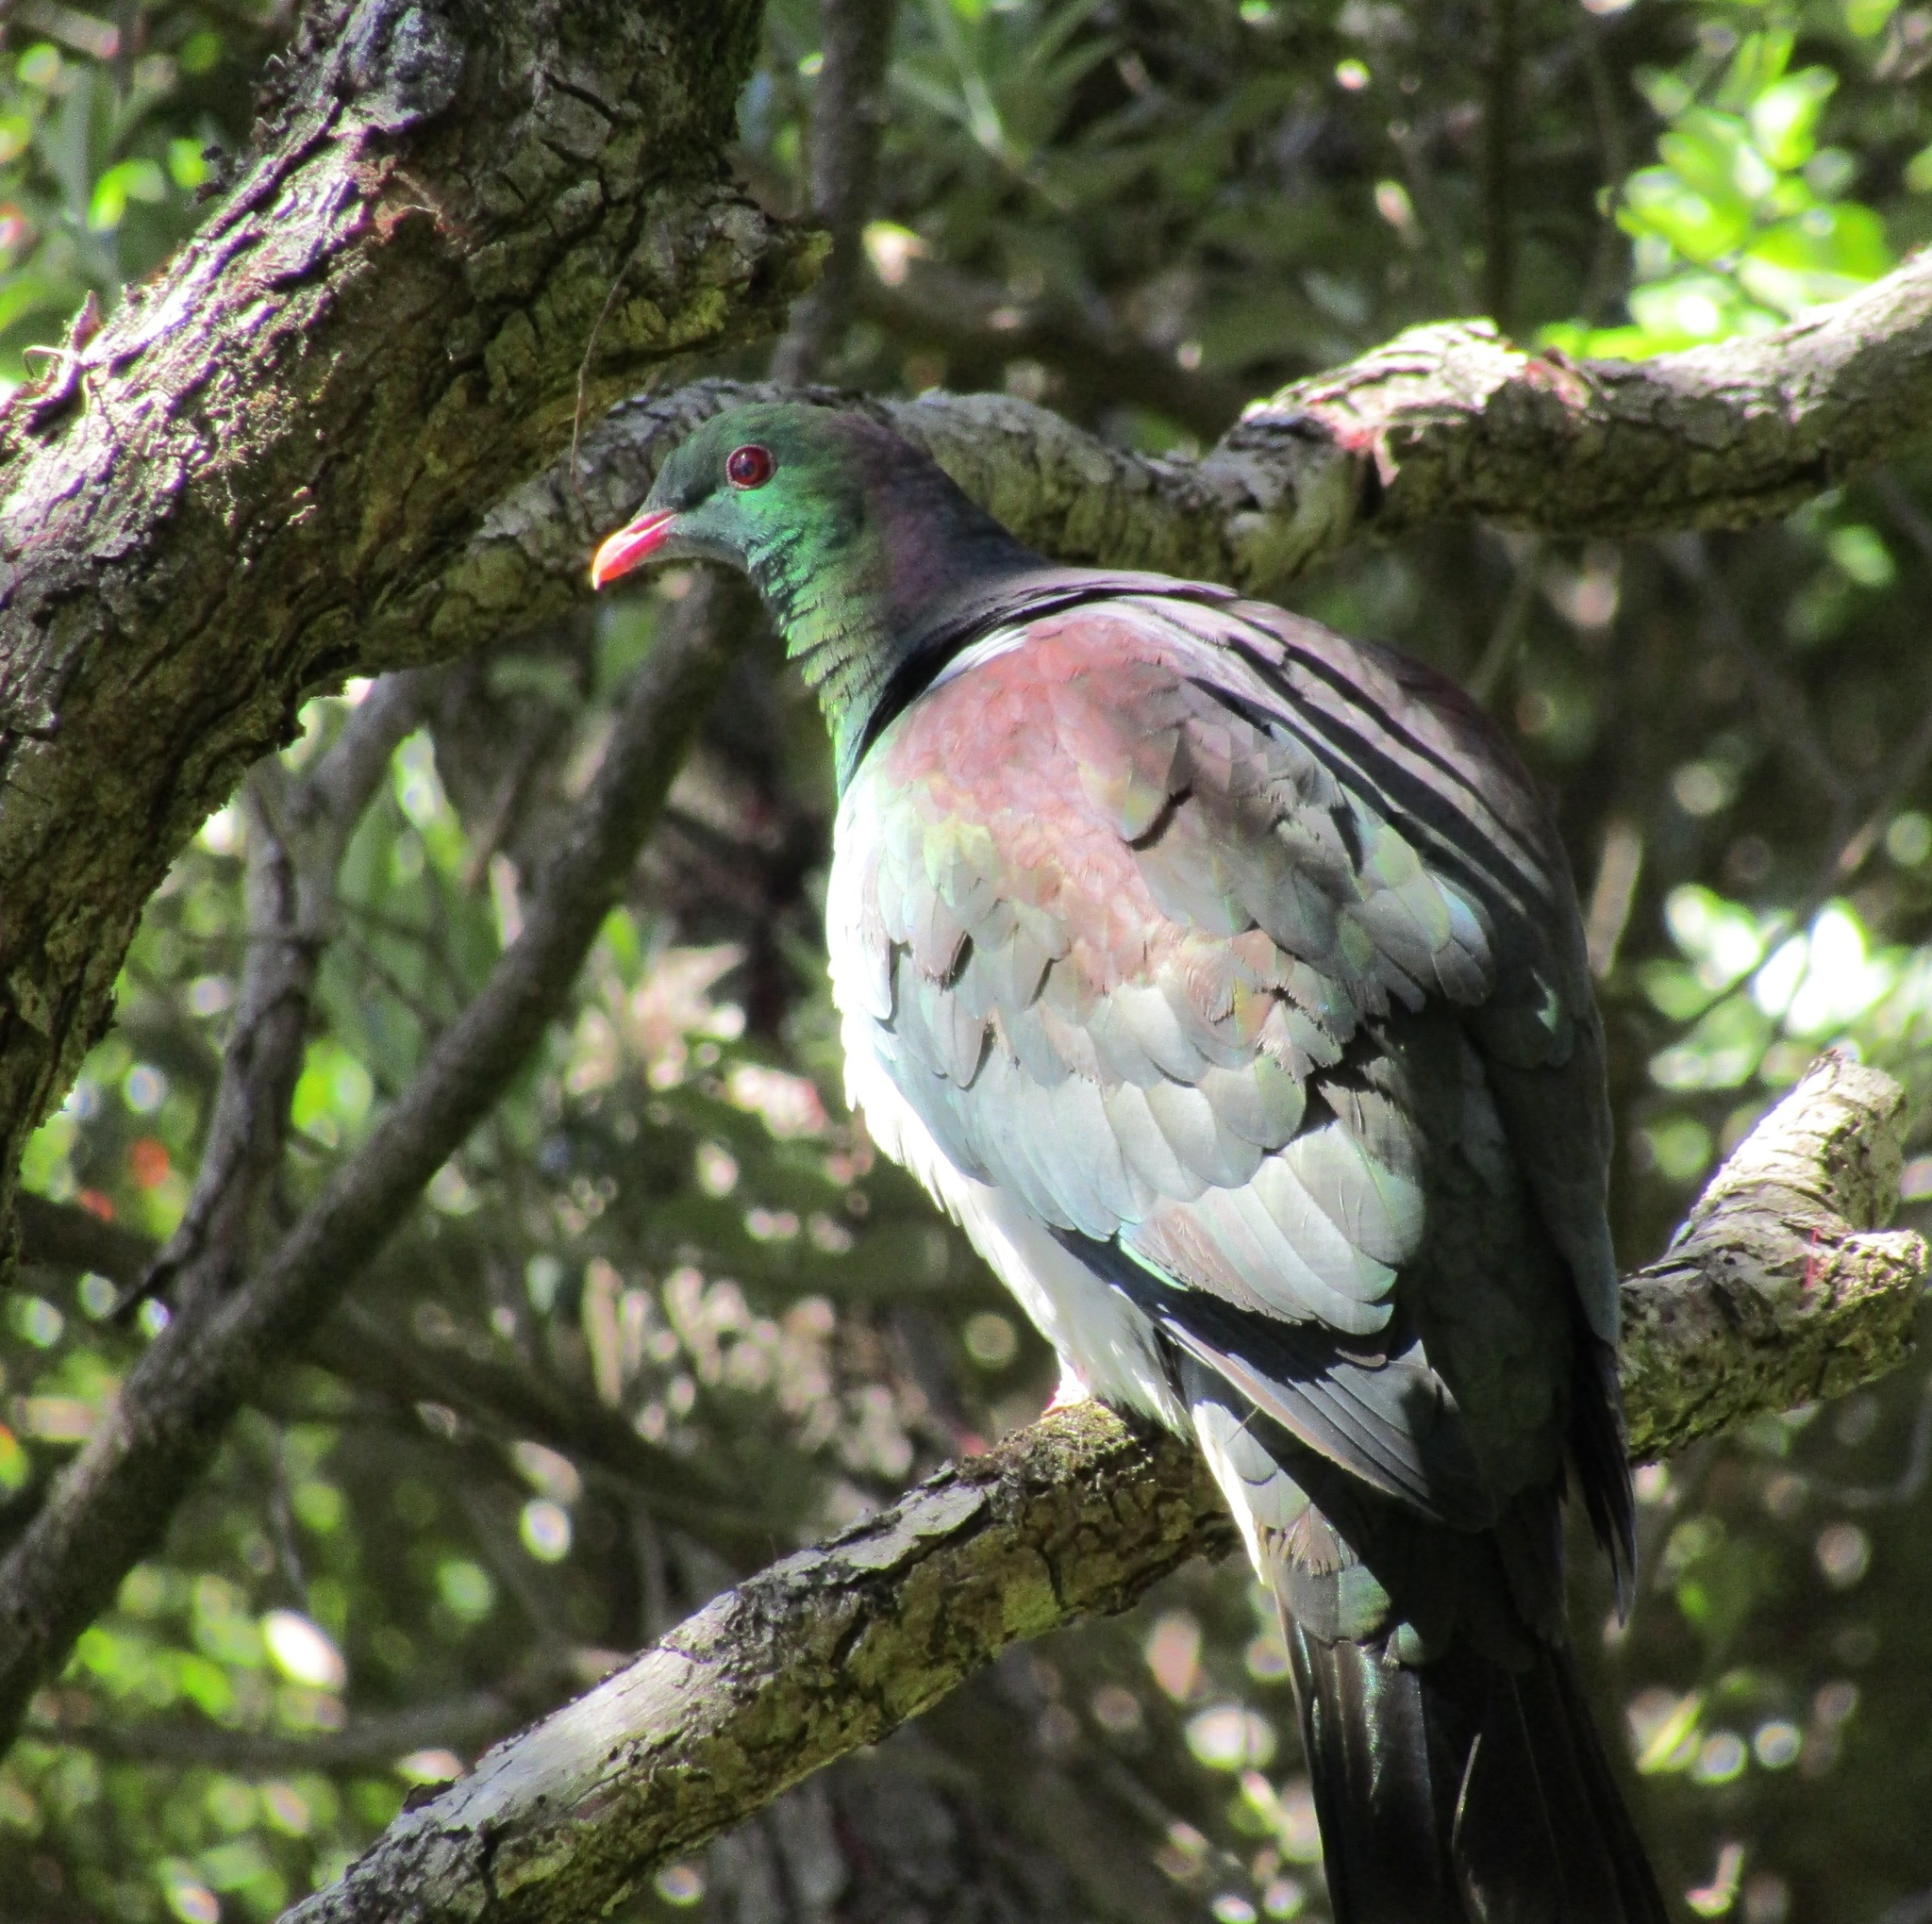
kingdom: Animalia
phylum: Chordata
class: Aves
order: Columbiformes
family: Columbidae
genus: Hemiphaga
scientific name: Hemiphaga novaeseelandiae
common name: New zealand pigeon
